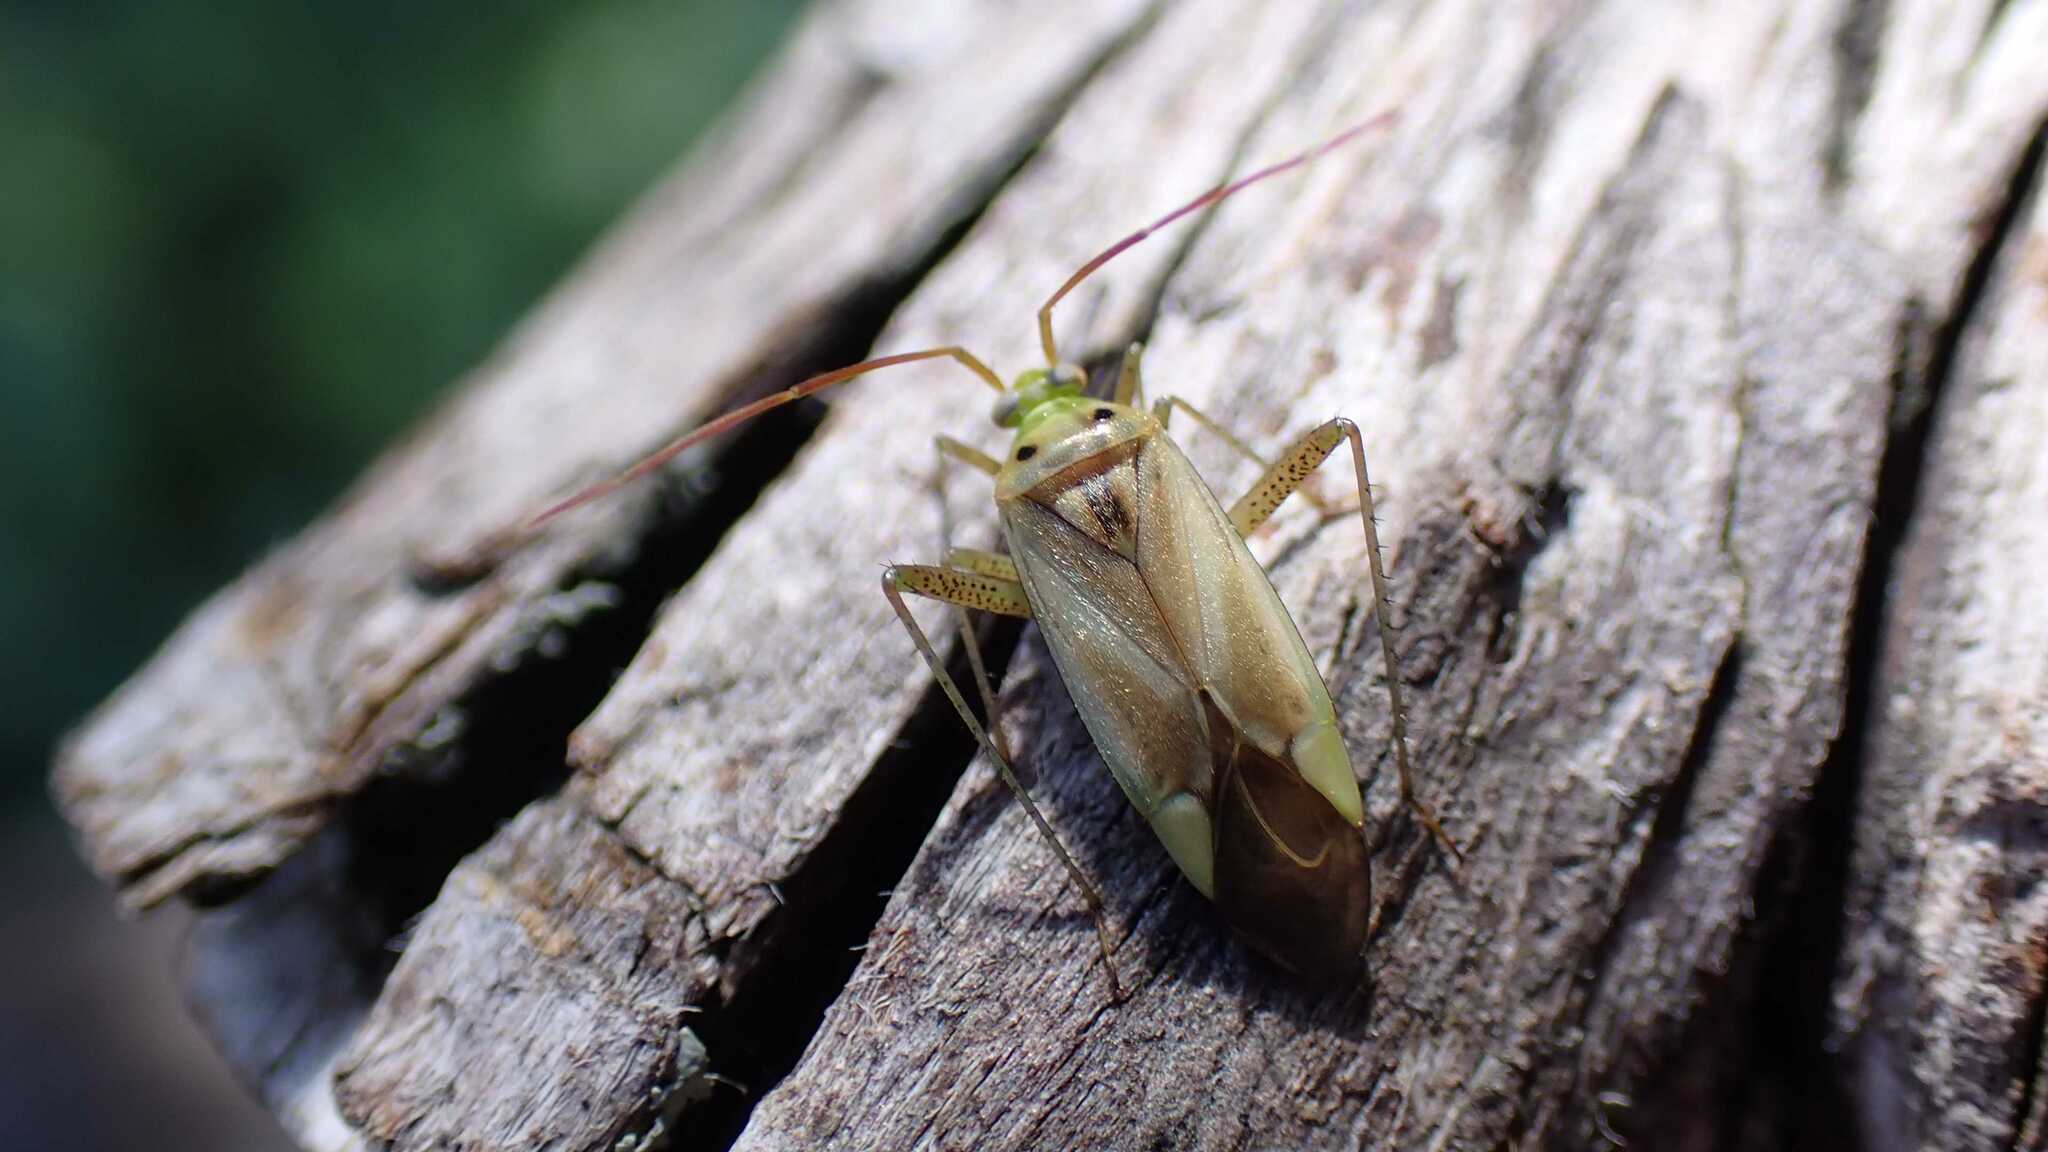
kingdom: Animalia
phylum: Arthropoda
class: Insecta
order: Hemiptera
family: Miridae
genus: Adelphocoris
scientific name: Adelphocoris lineolatus
